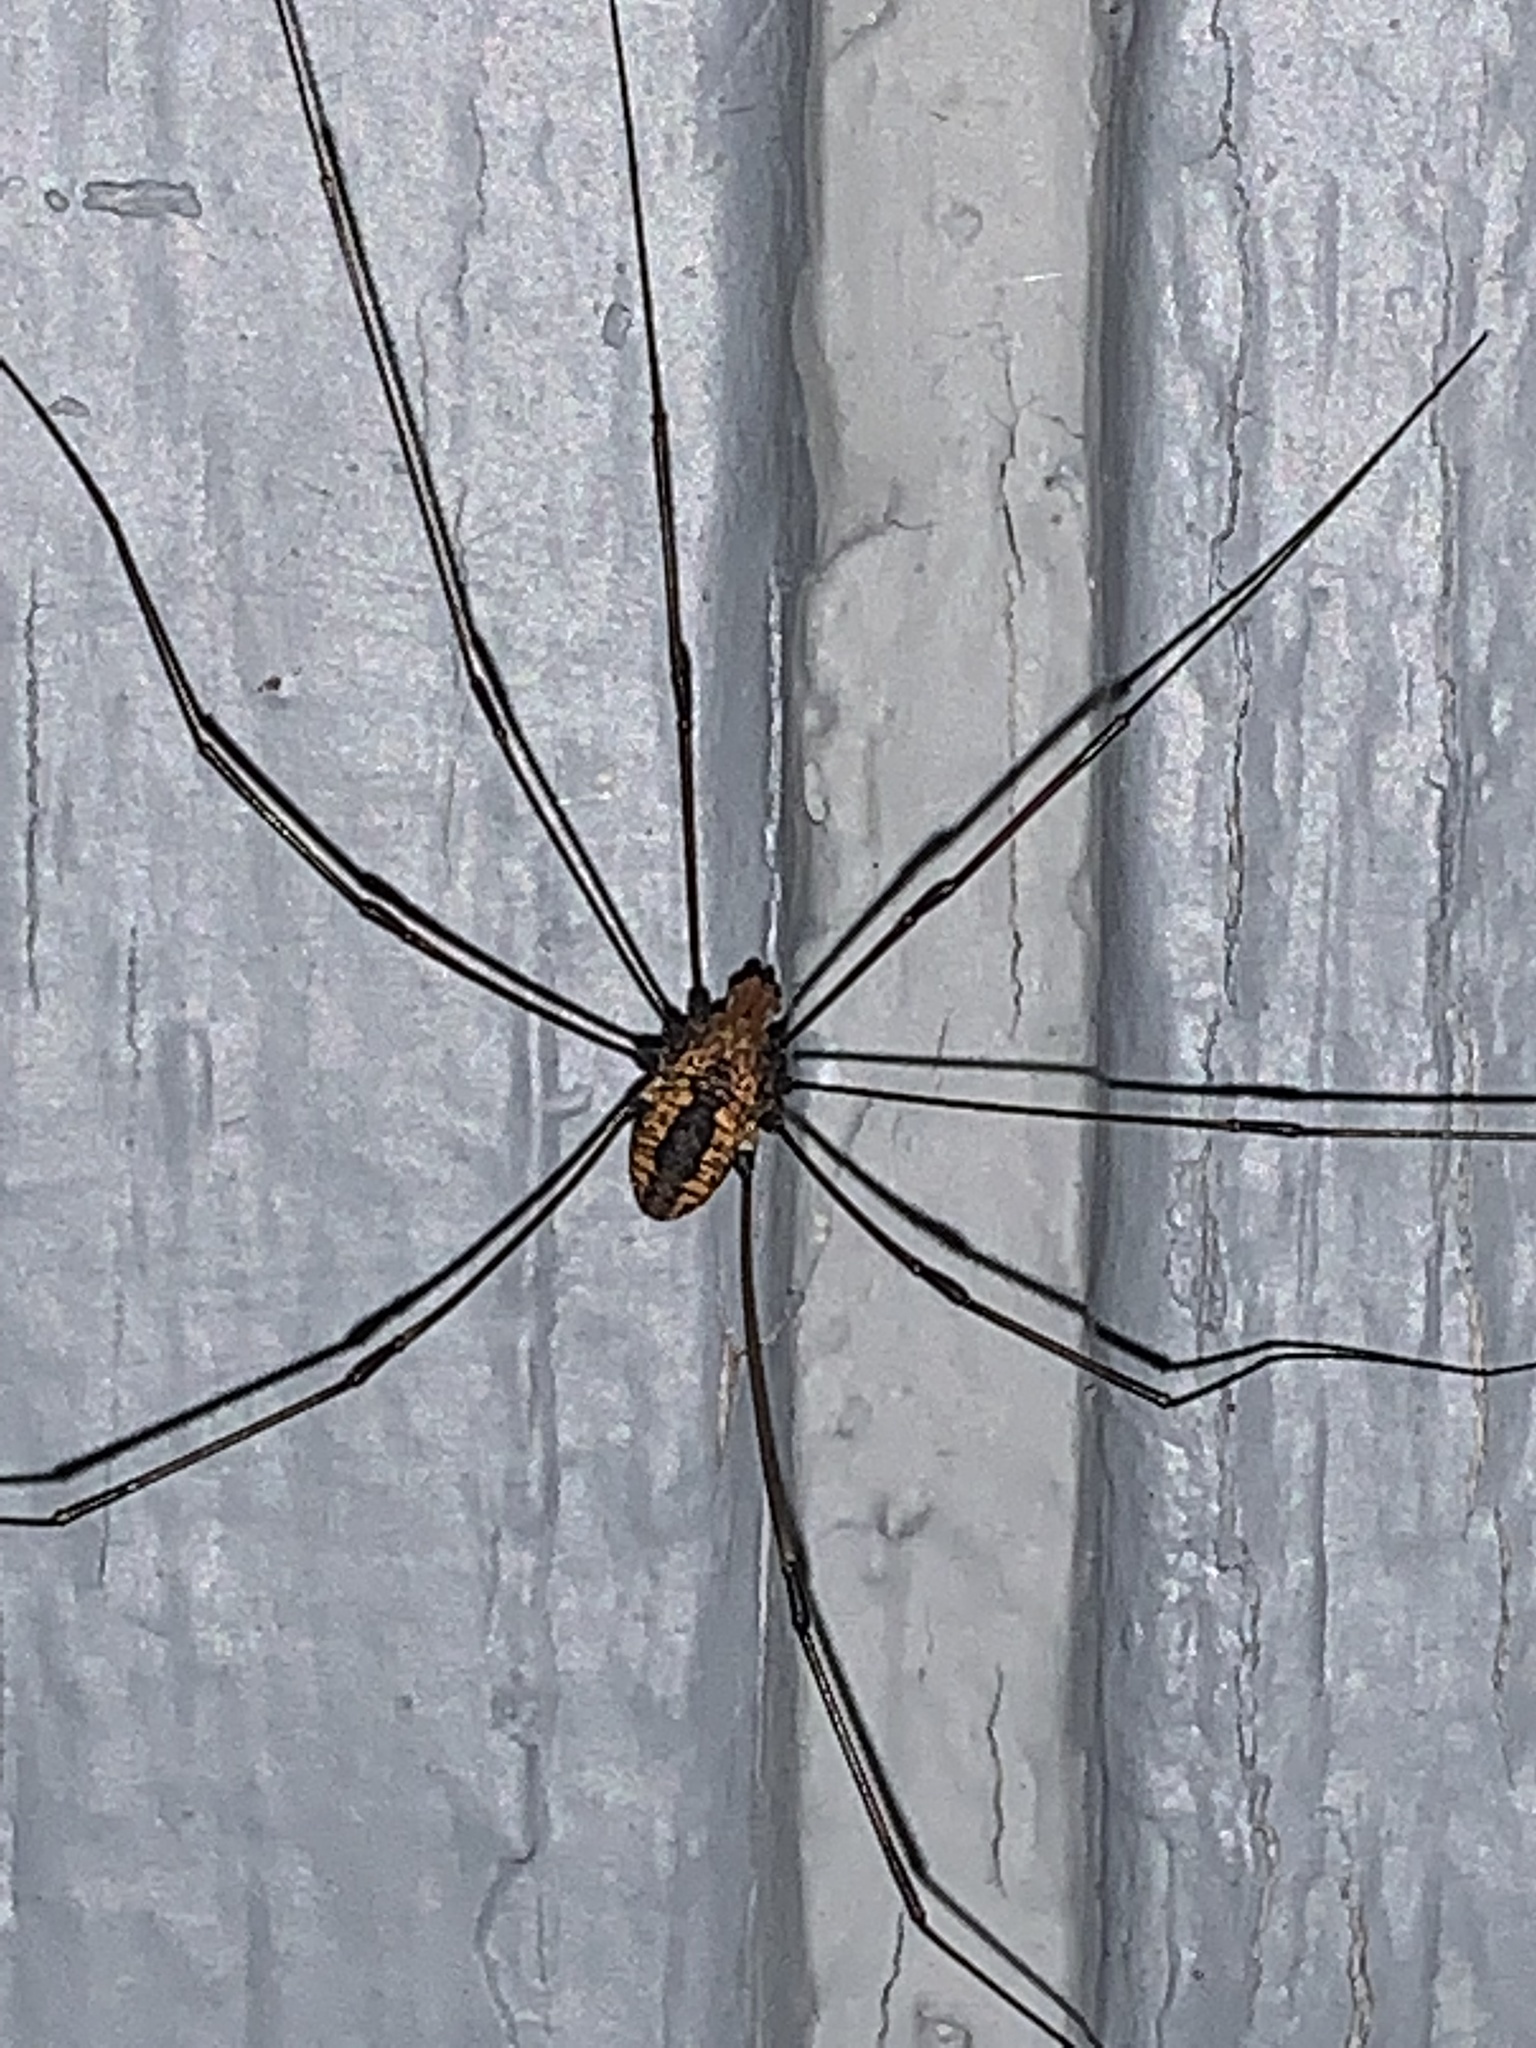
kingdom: Animalia
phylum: Arthropoda
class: Arachnida
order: Opiliones
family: Sclerosomatidae
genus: Leiobunum
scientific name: Leiobunum vittatum
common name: Eastern harvestman
